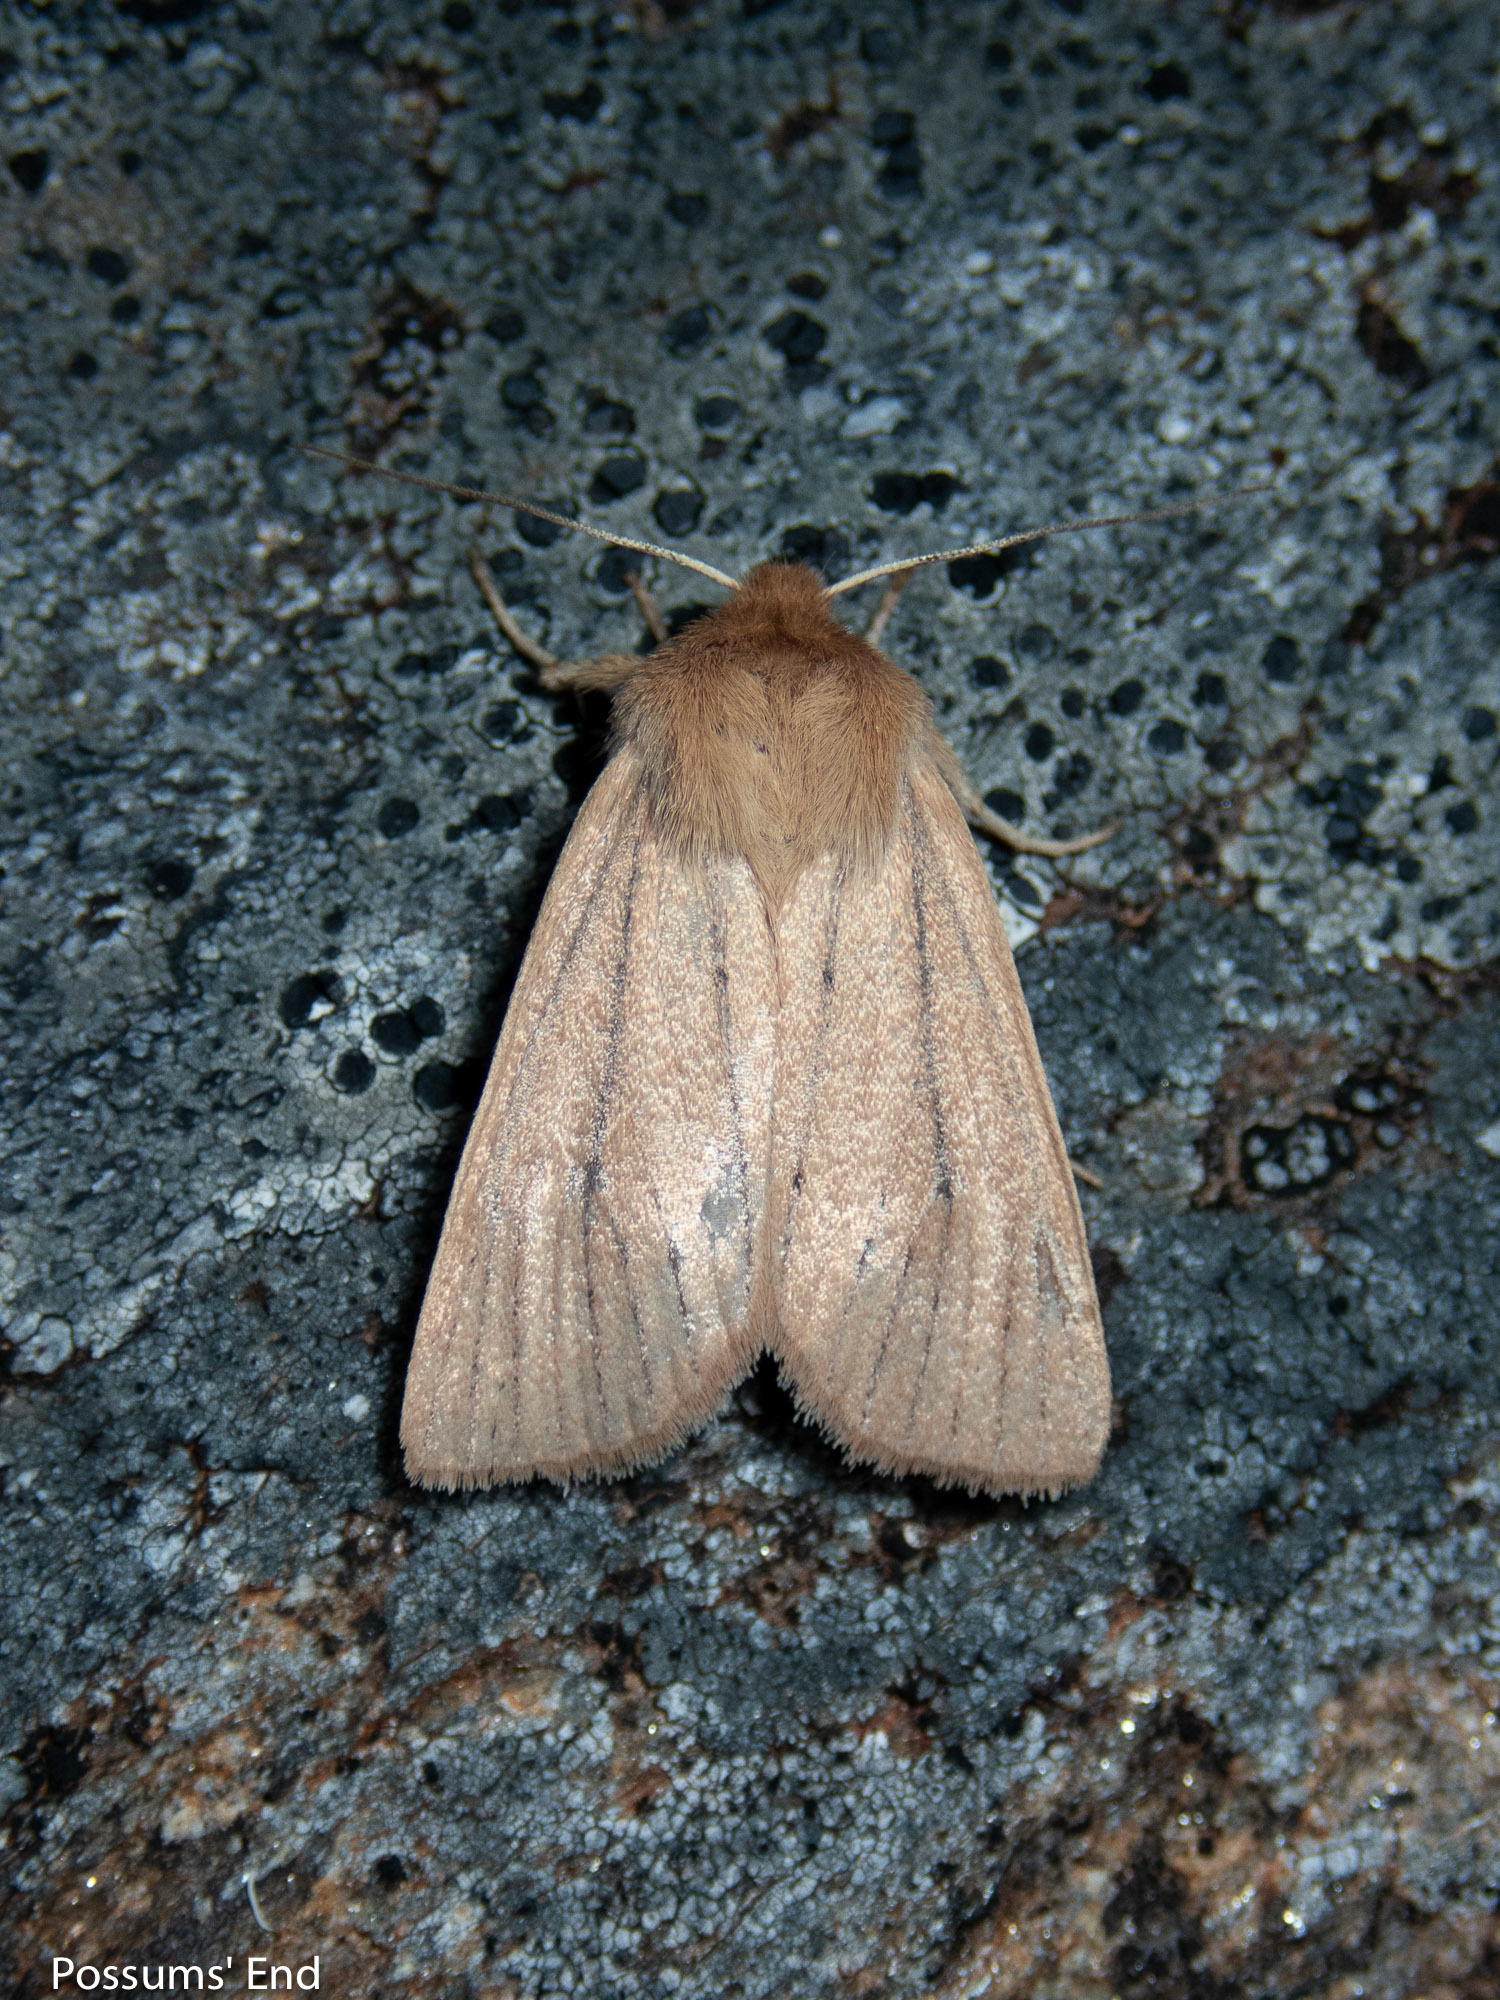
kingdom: Animalia
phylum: Arthropoda
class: Insecta
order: Lepidoptera
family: Noctuidae
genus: Ichneutica
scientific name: Ichneutica
